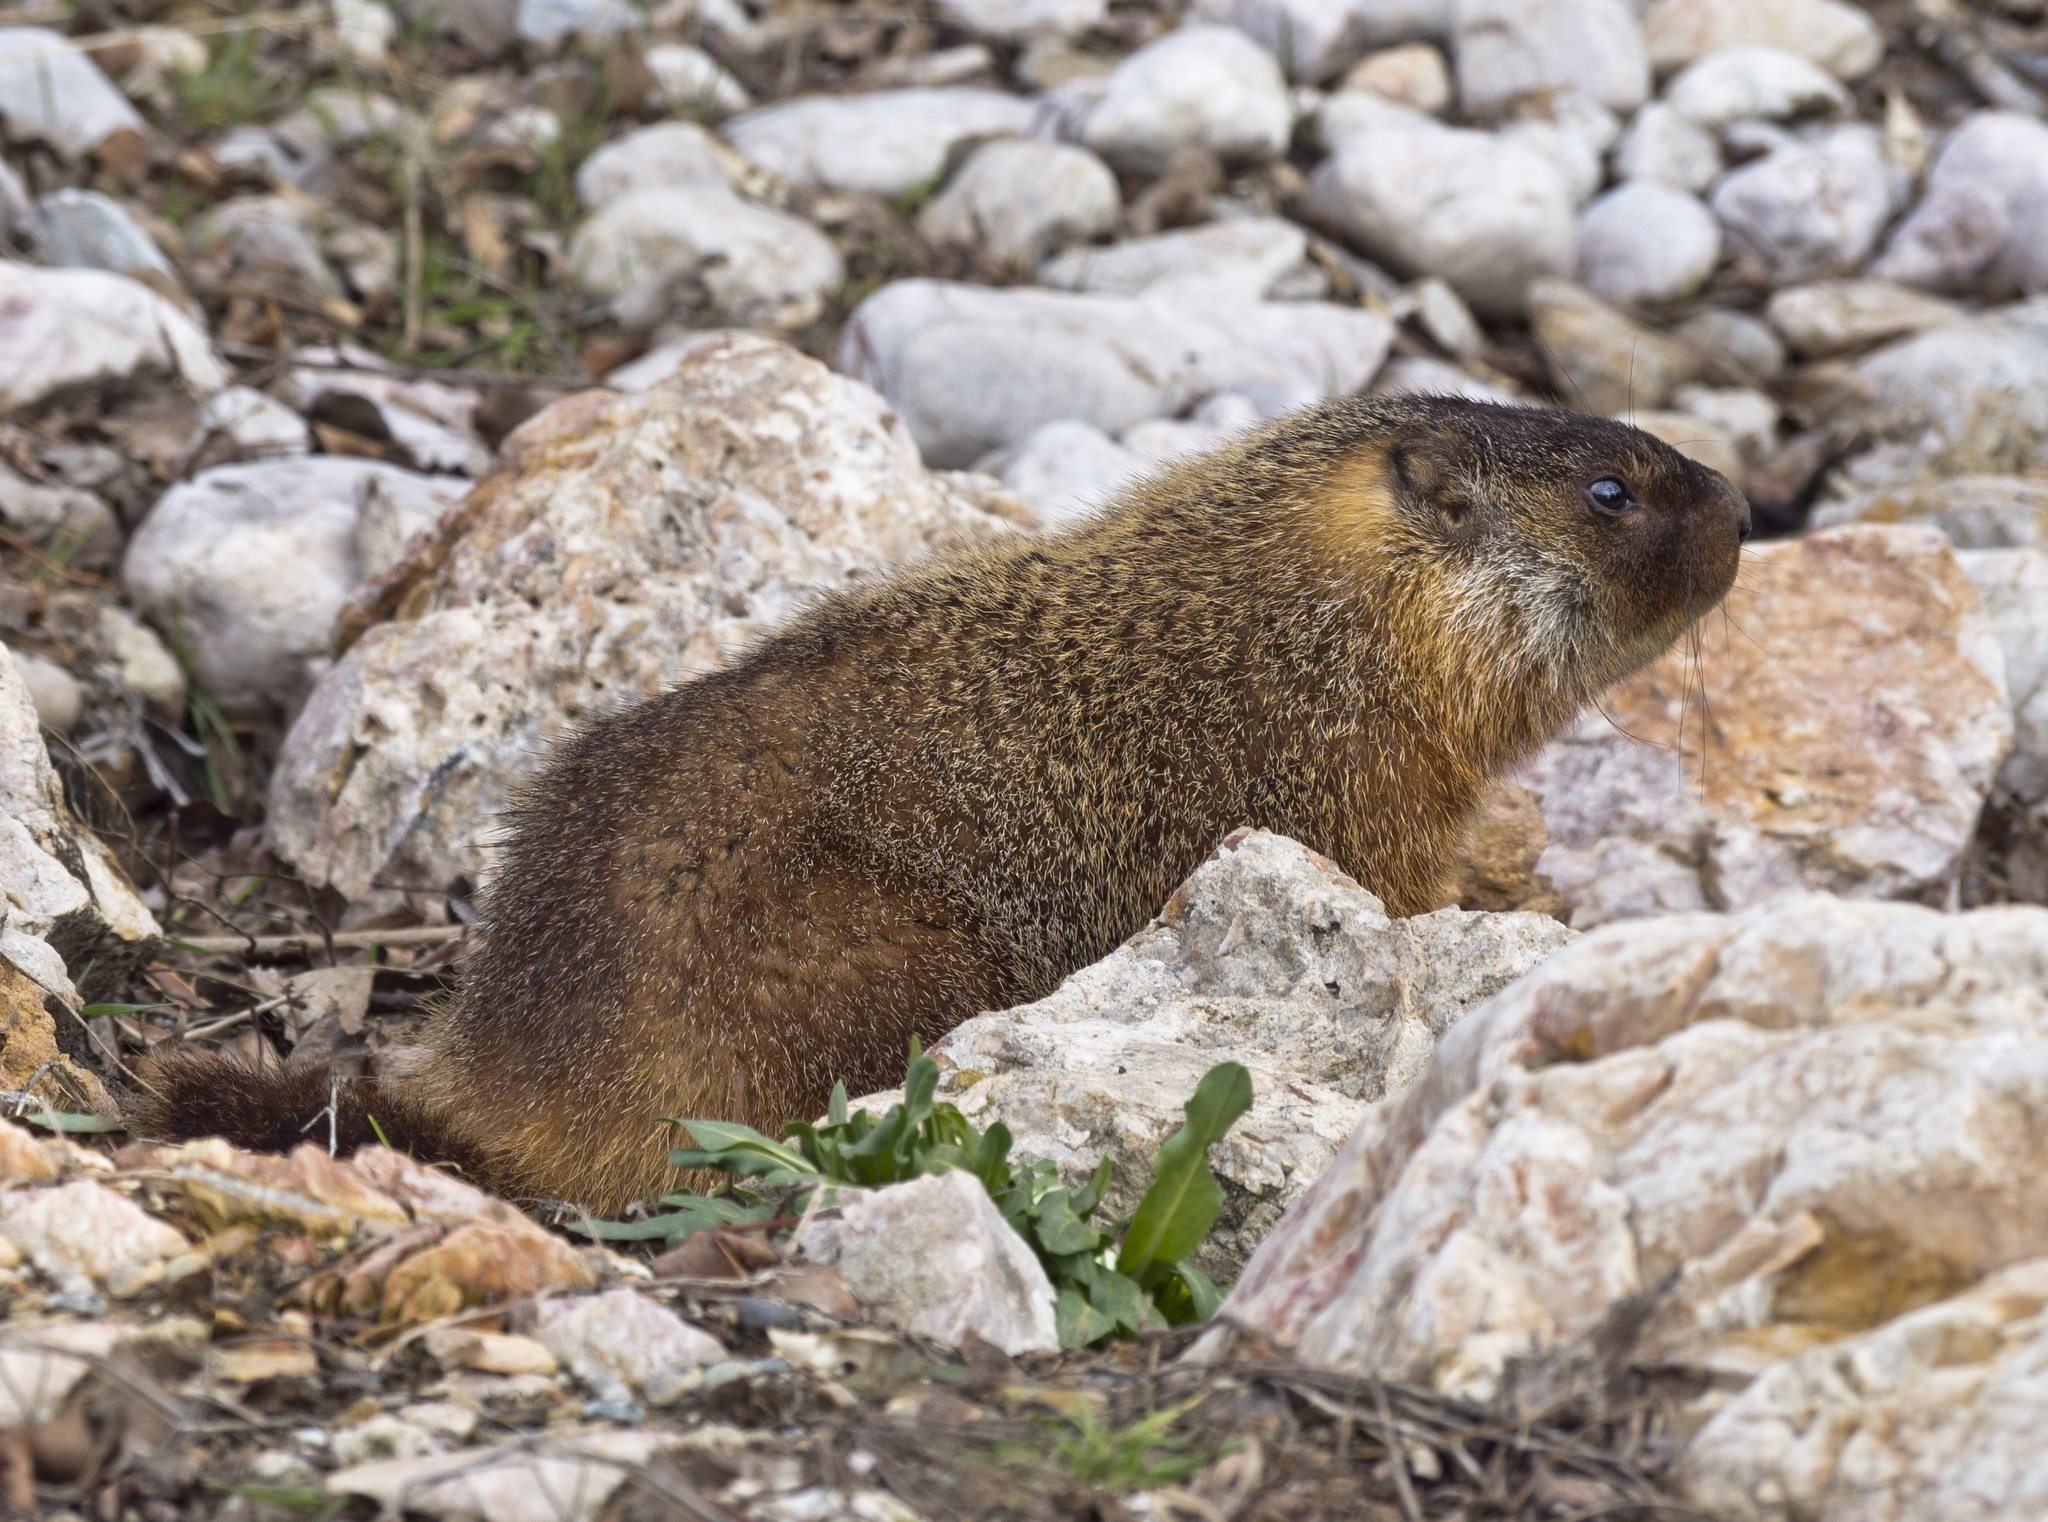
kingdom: Animalia
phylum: Chordata
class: Mammalia
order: Rodentia
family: Sciuridae
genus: Marmota
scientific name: Marmota flaviventris
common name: Yellow-bellied marmot
